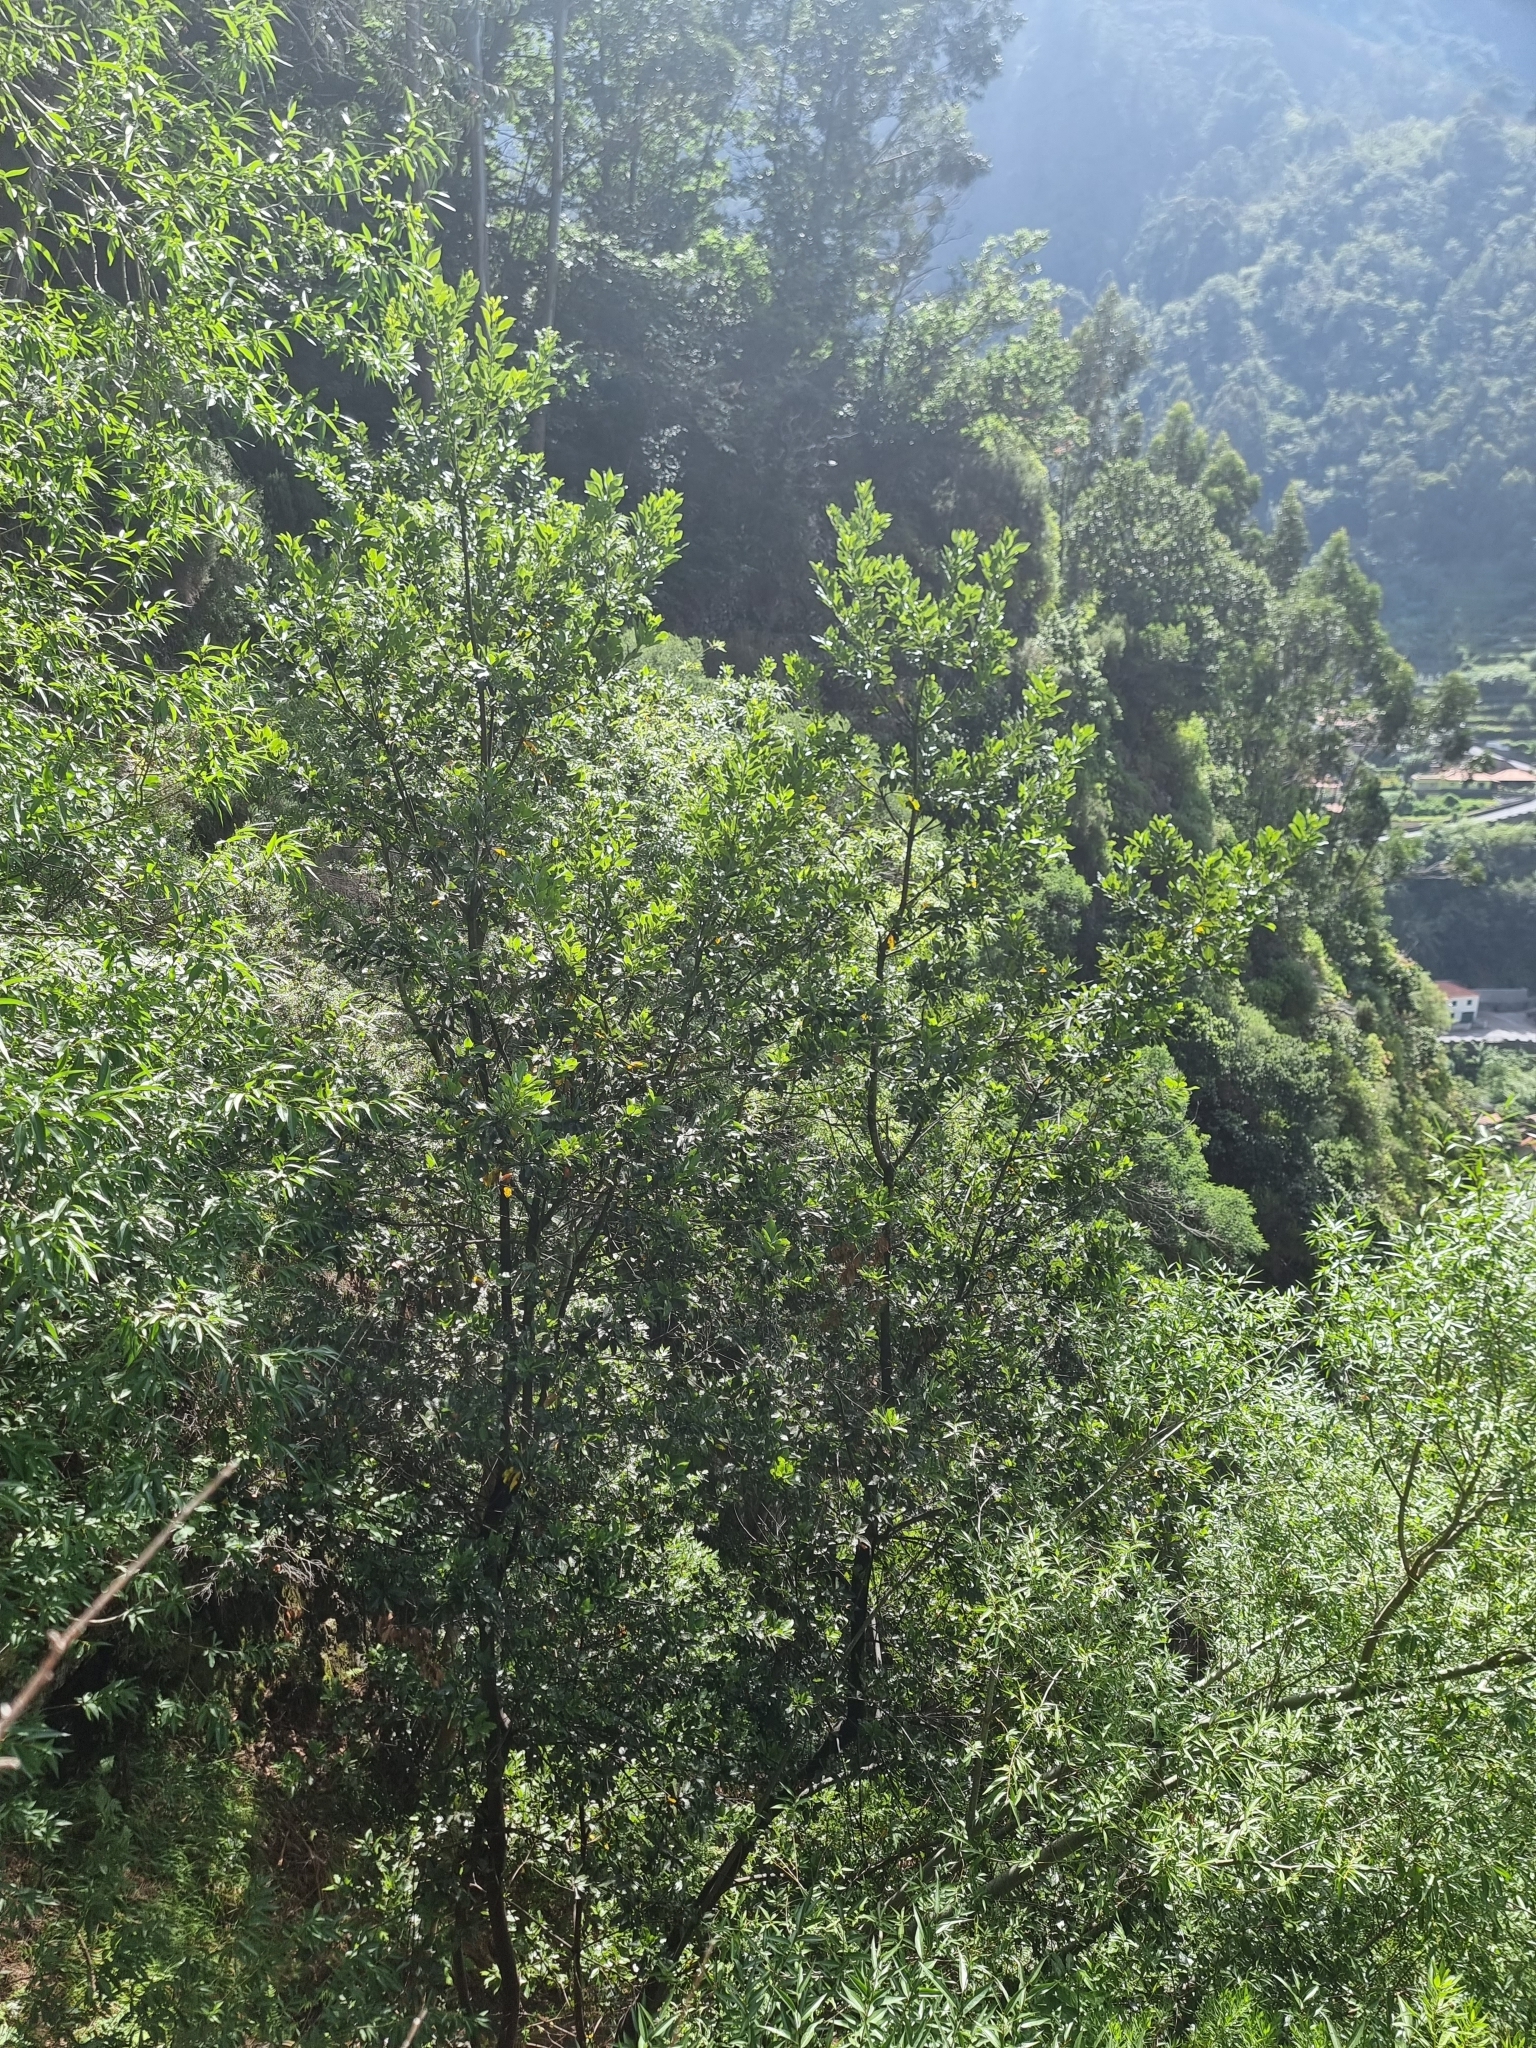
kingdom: Plantae
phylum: Tracheophyta
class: Magnoliopsida
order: Laurales
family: Lauraceae
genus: Laurus
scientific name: Laurus novocanariensis
